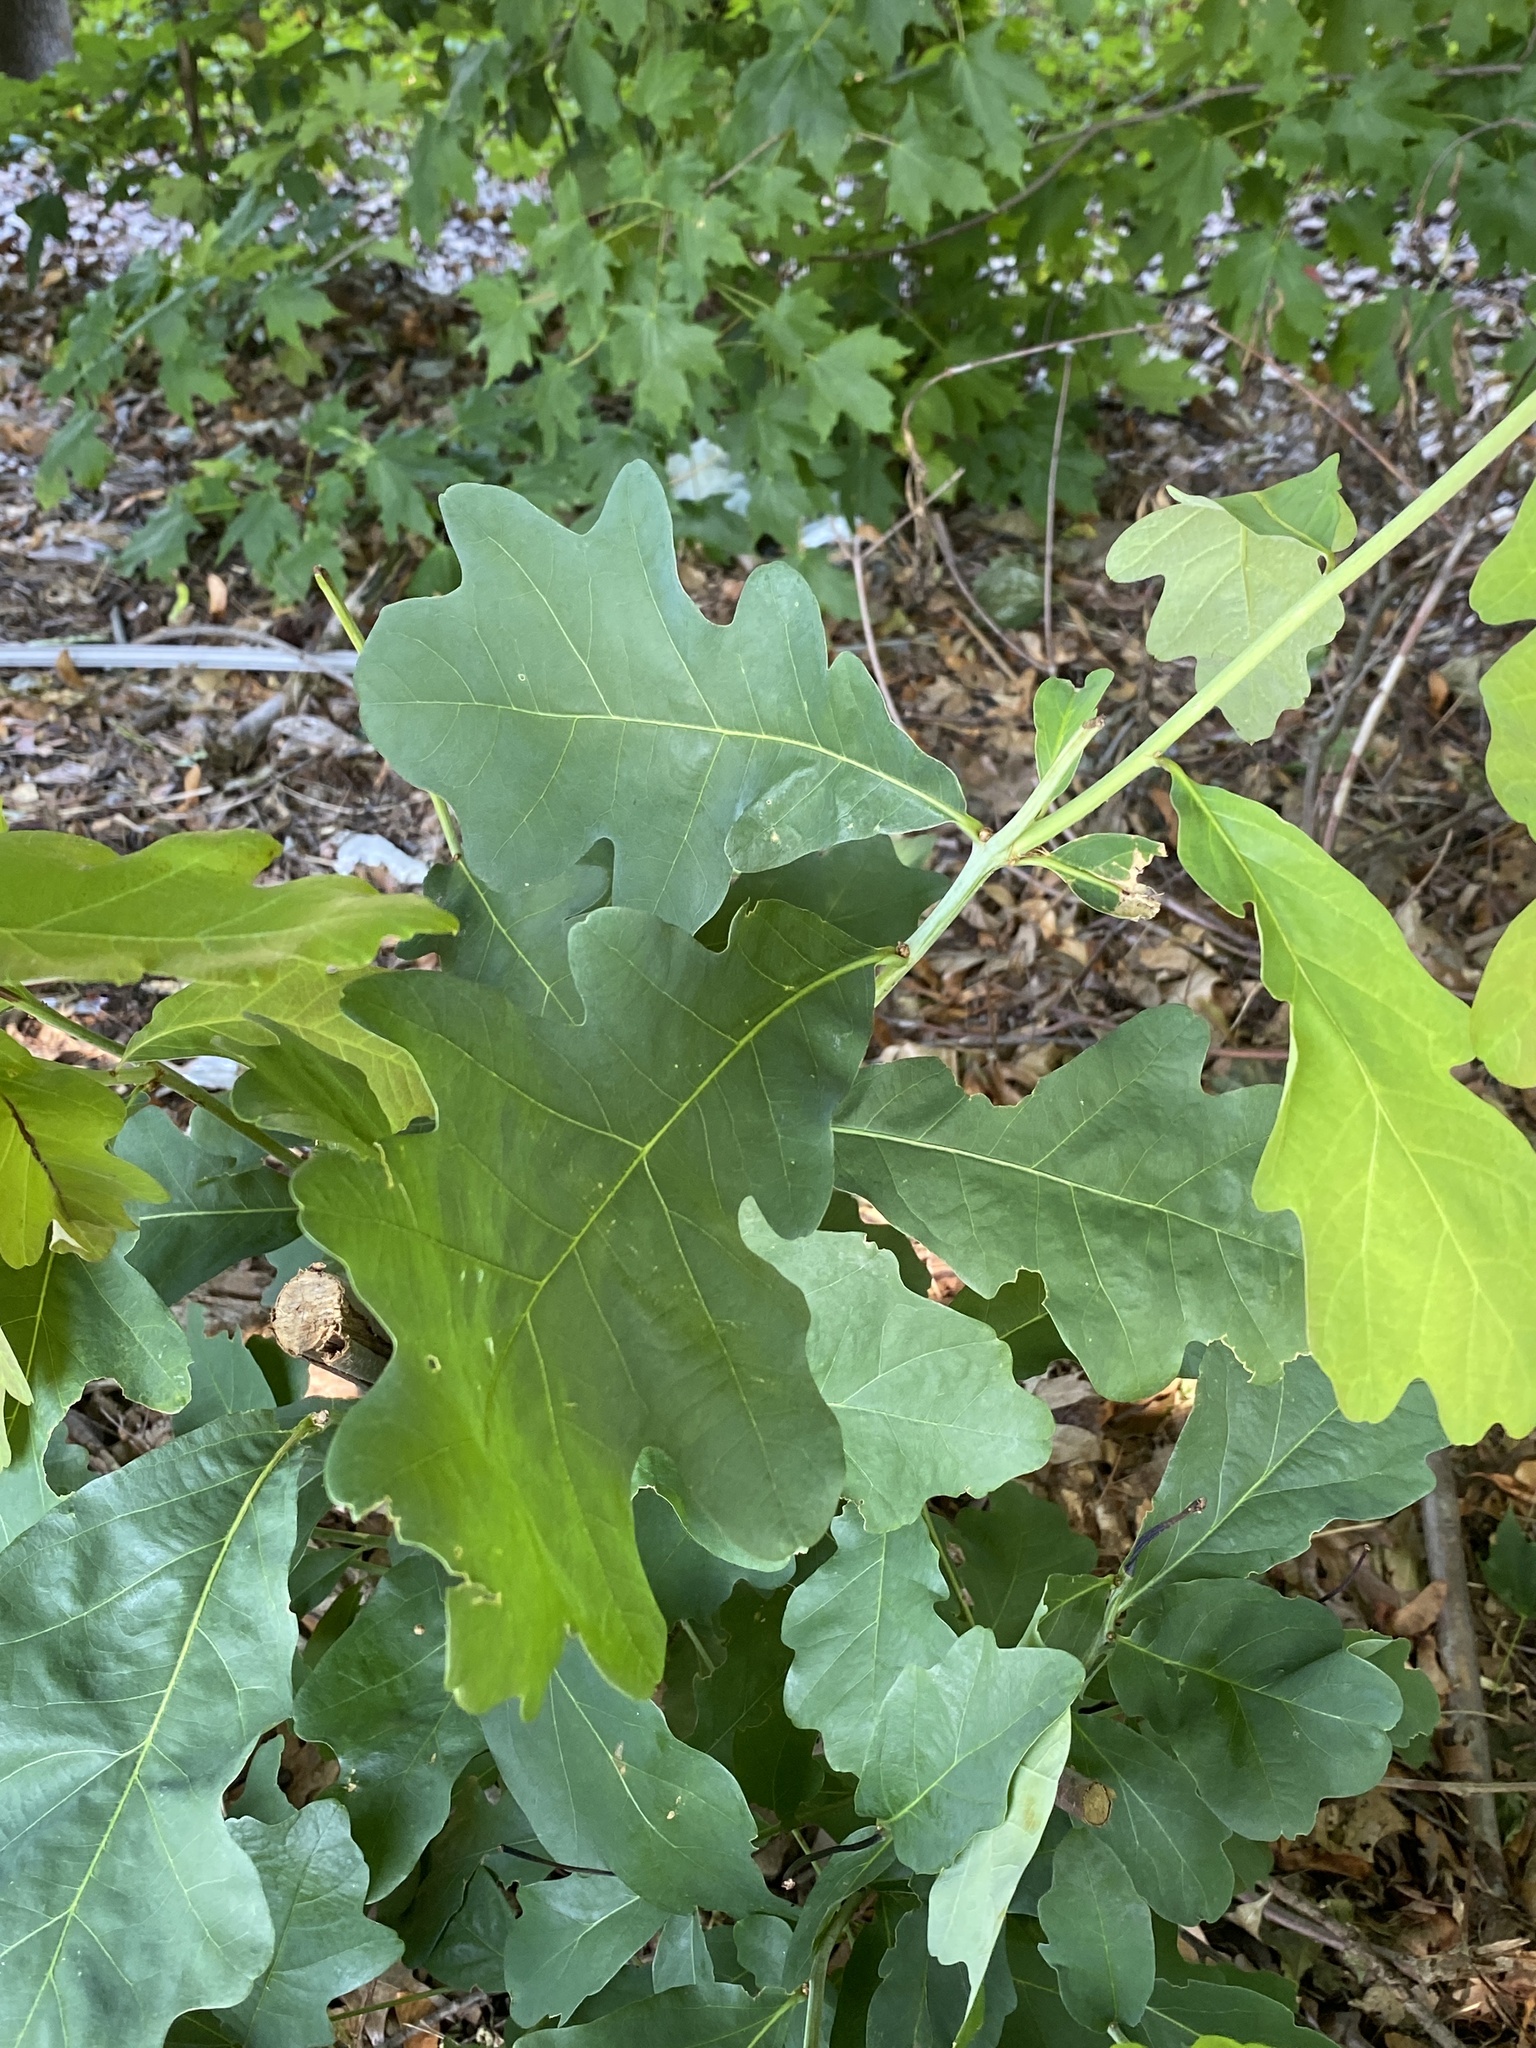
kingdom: Plantae
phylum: Tracheophyta
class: Magnoliopsida
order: Fagales
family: Fagaceae
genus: Quercus
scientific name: Quercus alba
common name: White oak
